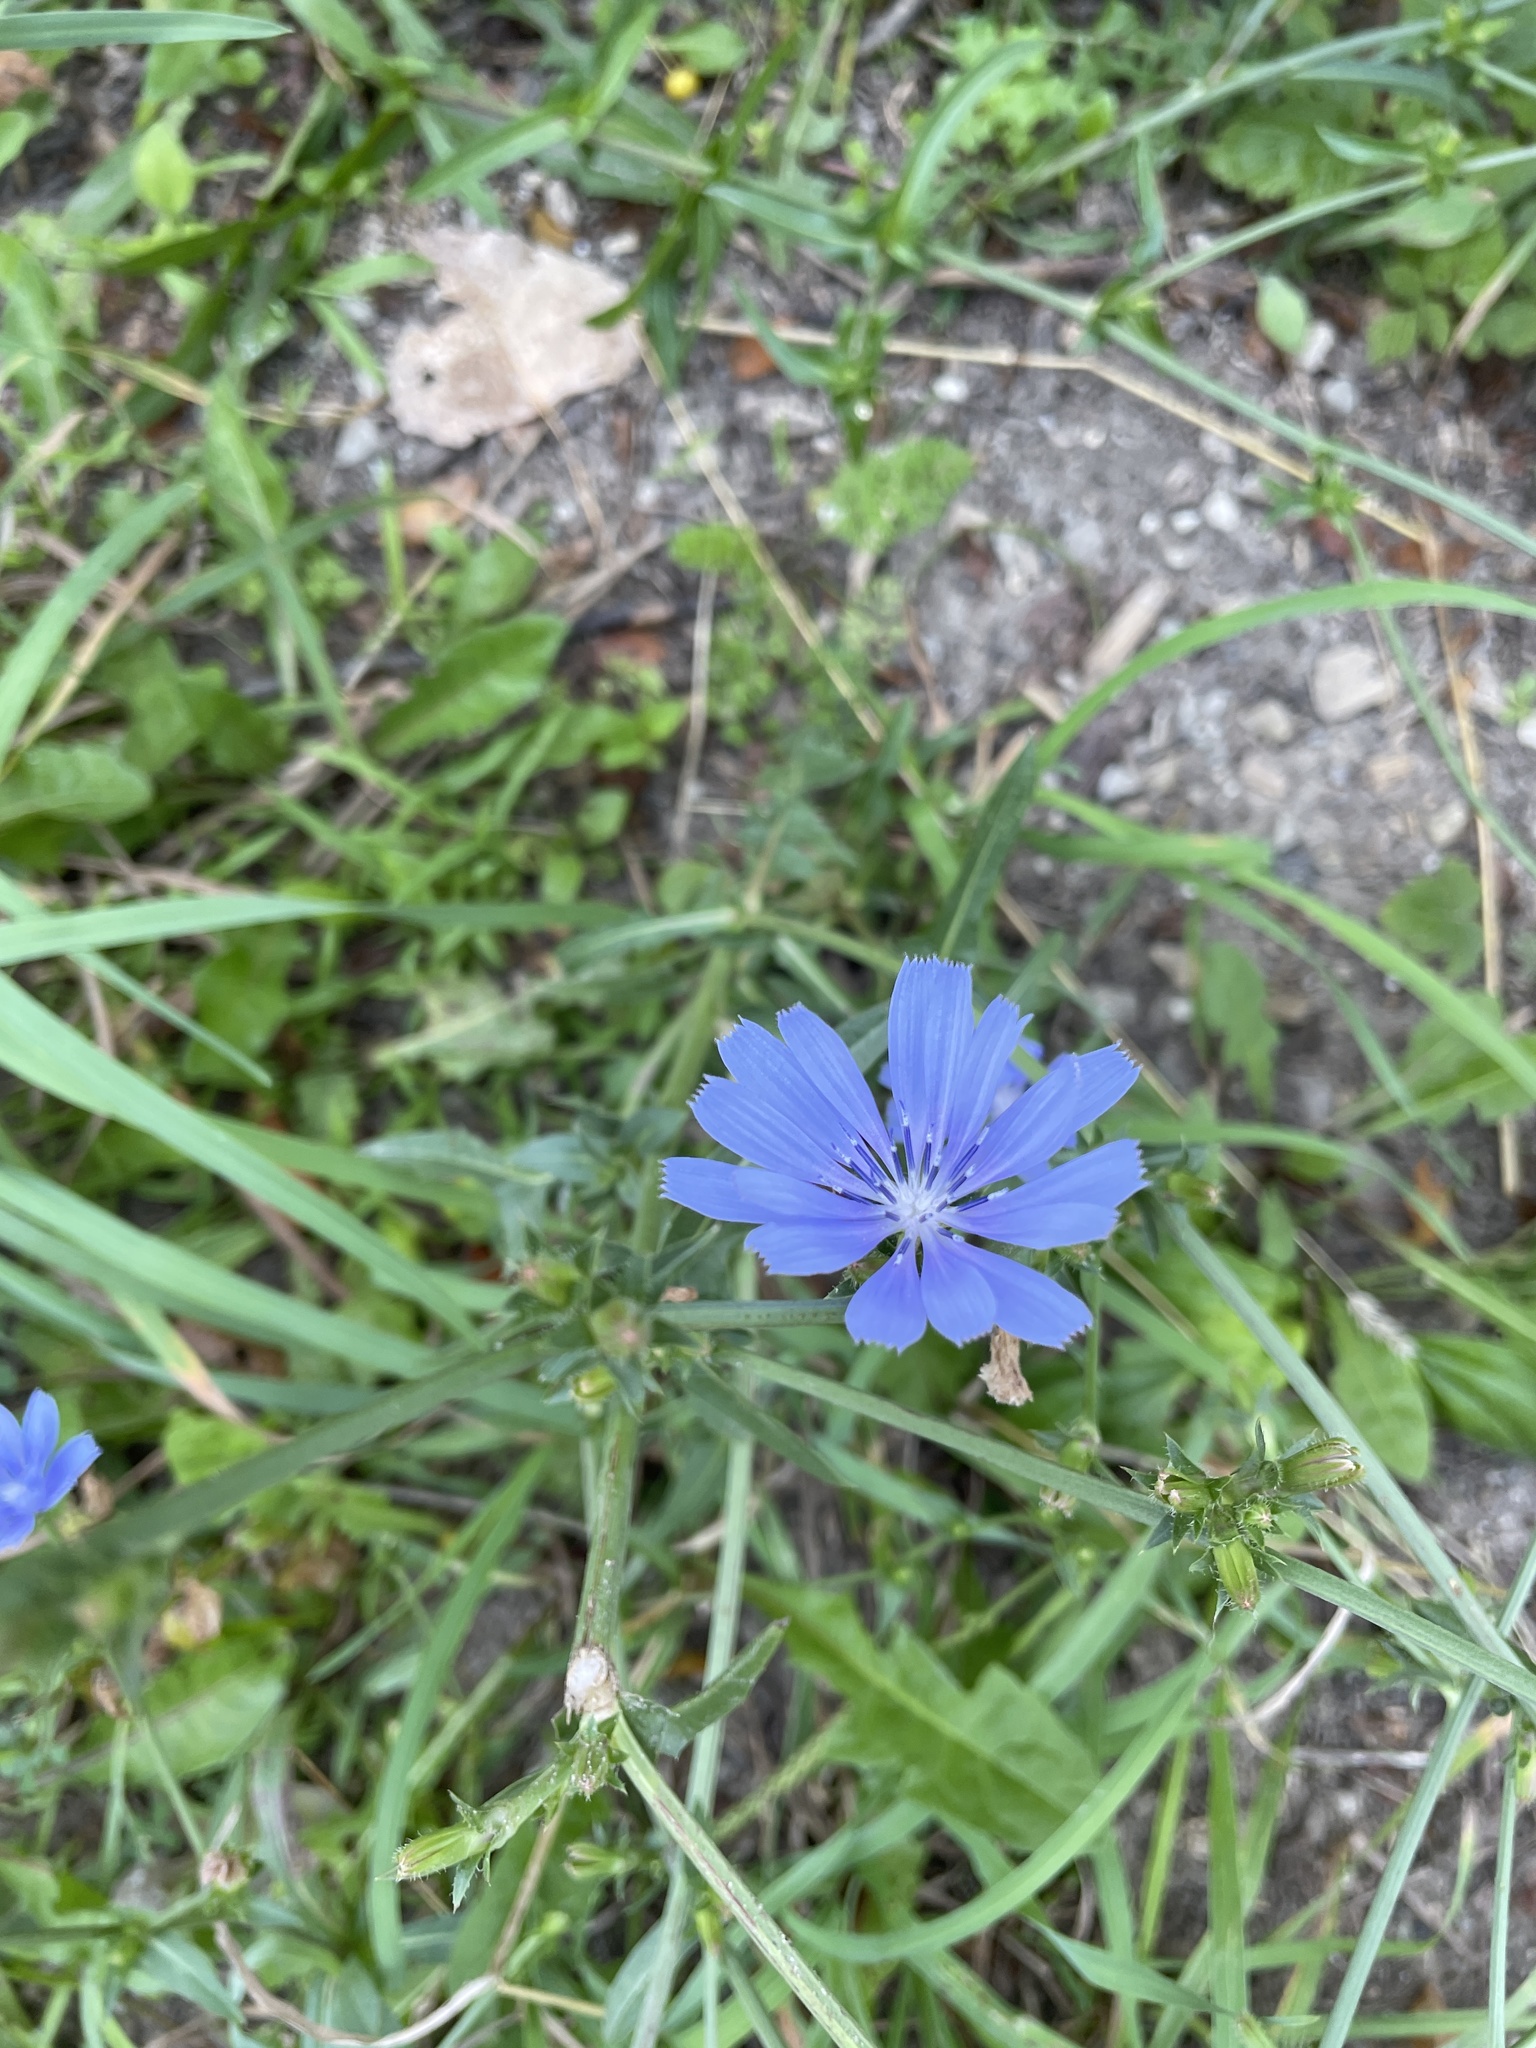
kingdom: Plantae
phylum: Tracheophyta
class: Magnoliopsida
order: Asterales
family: Asteraceae
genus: Cichorium
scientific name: Cichorium intybus
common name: Chicory
